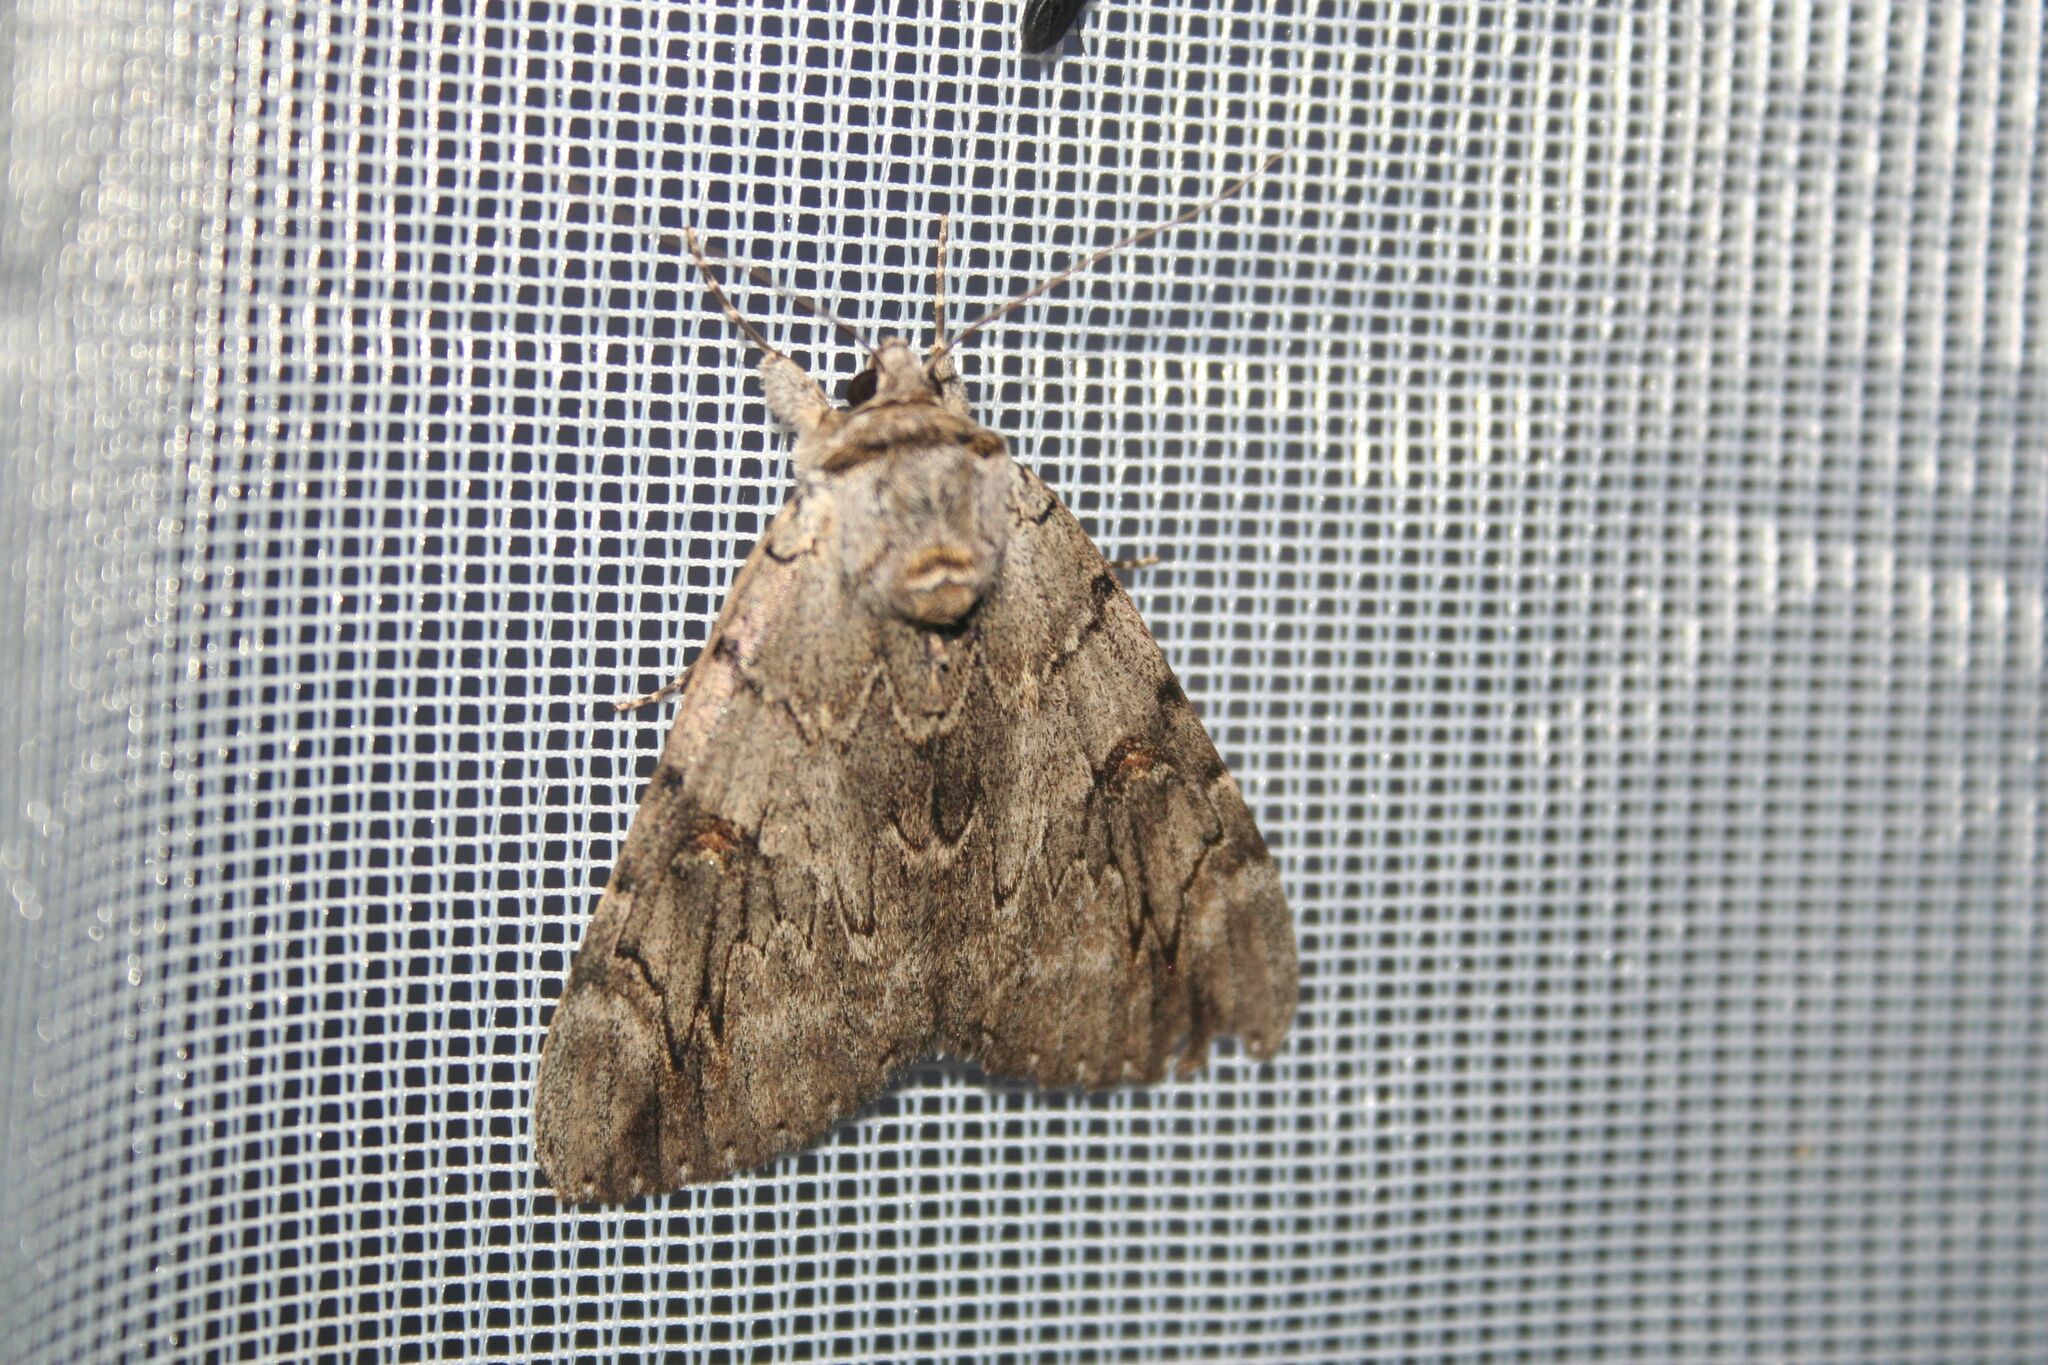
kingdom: Animalia
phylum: Arthropoda
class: Insecta
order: Lepidoptera
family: Erebidae
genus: Catocala
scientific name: Catocala electa
